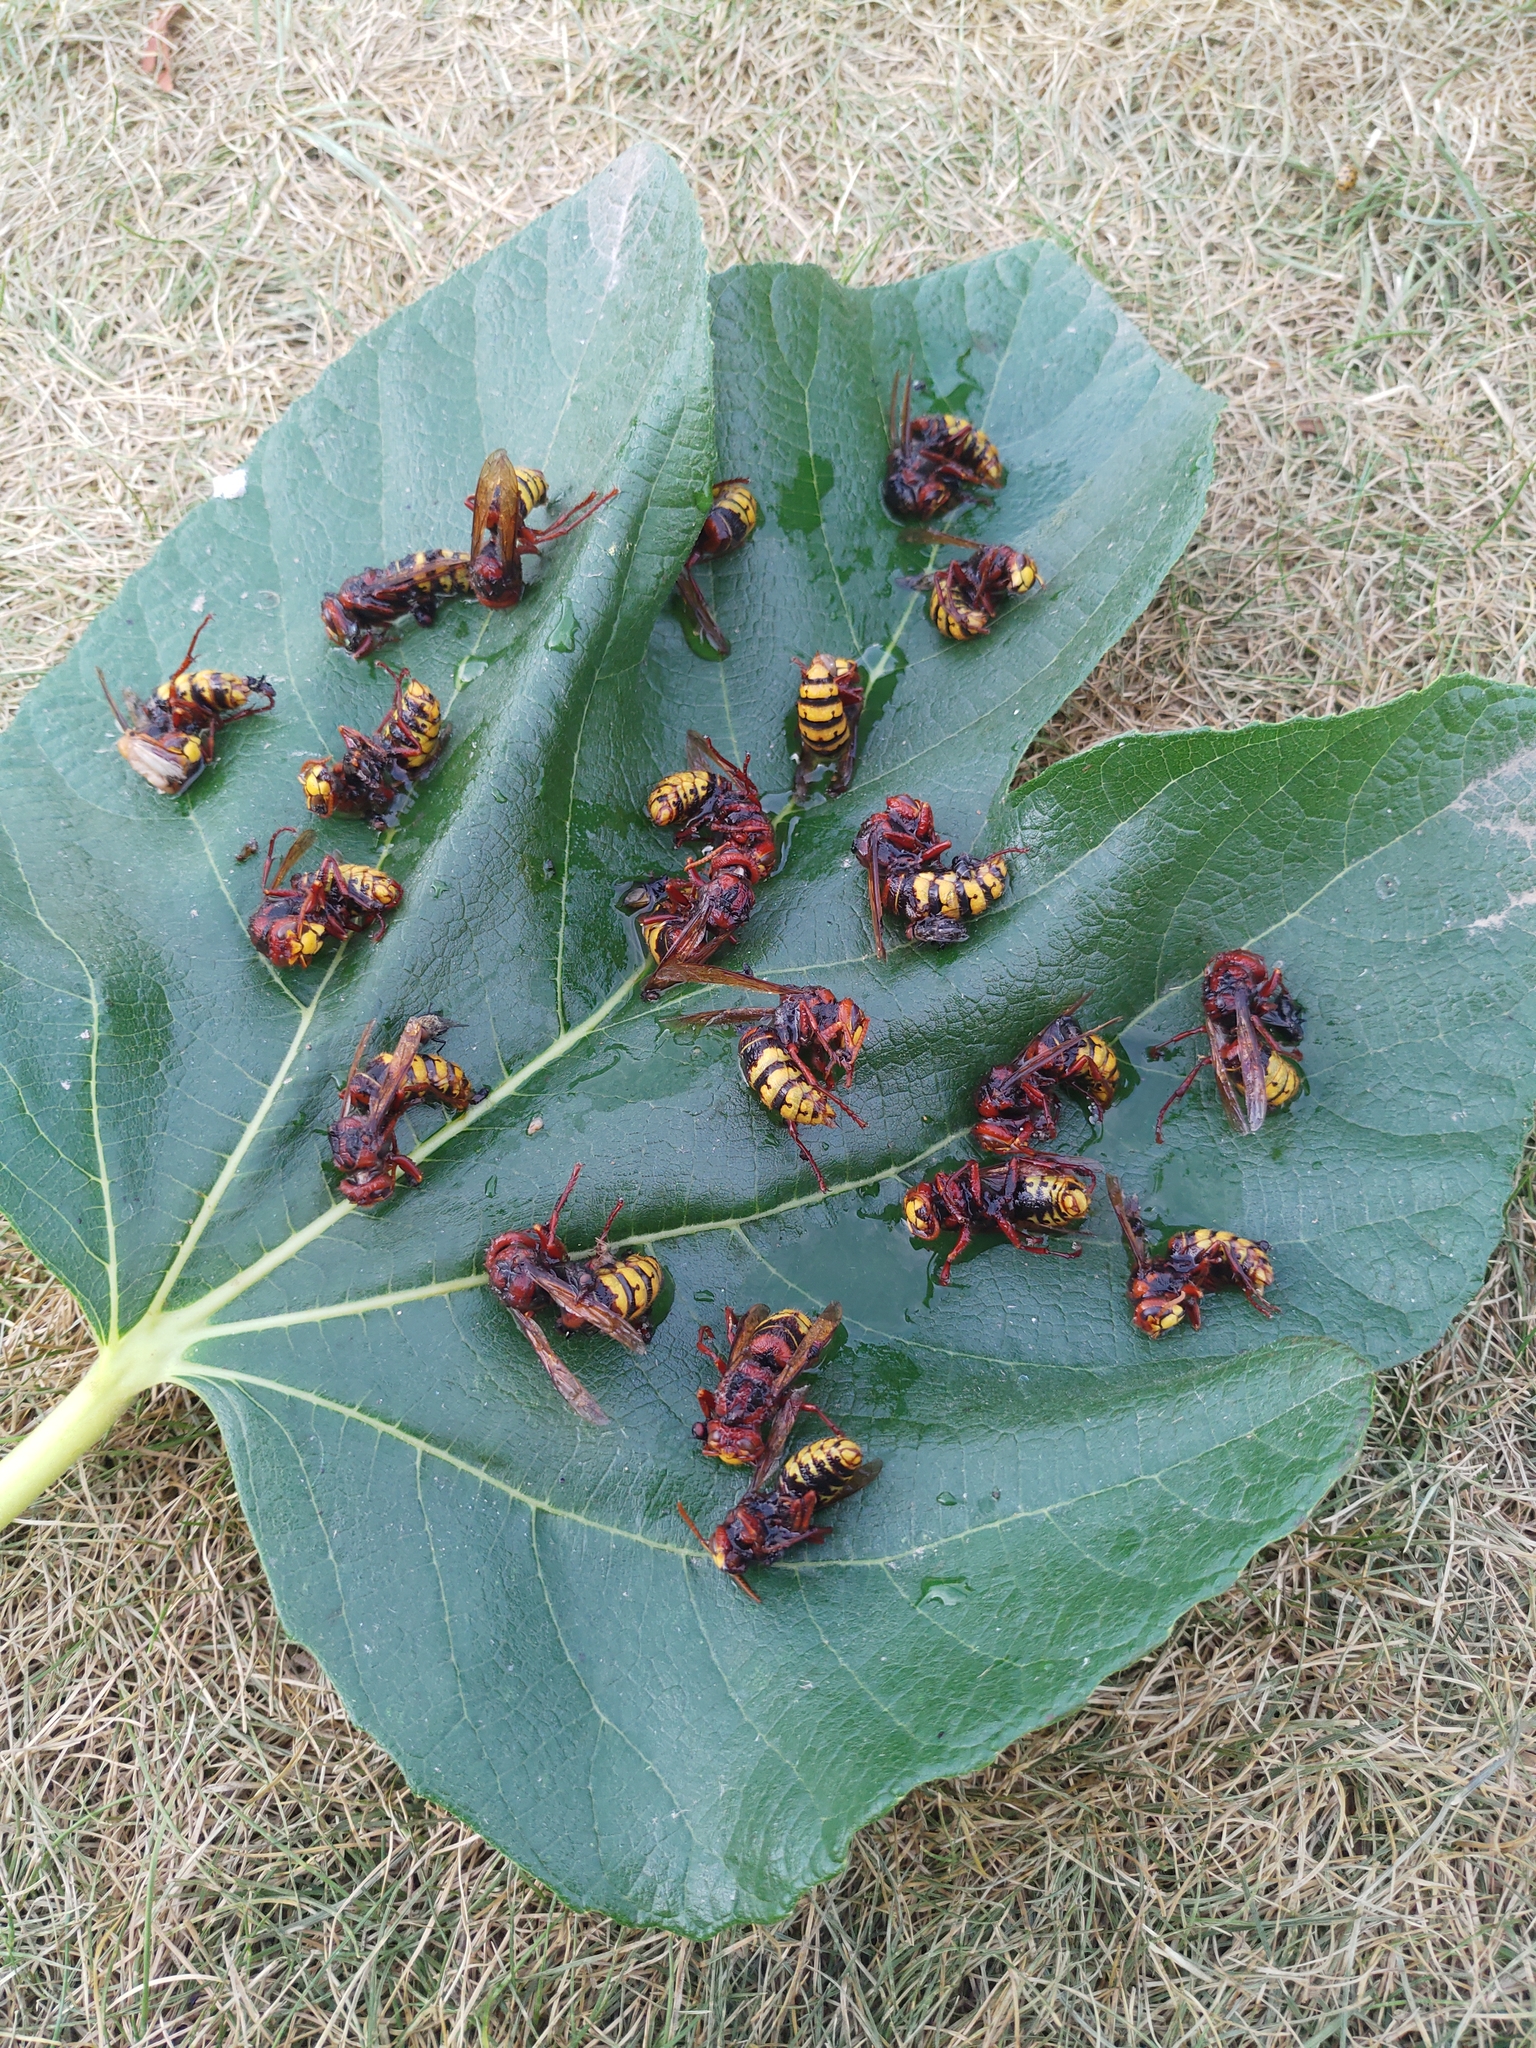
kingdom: Animalia
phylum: Arthropoda
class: Insecta
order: Hymenoptera
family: Vespidae
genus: Vespa
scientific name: Vespa crabro
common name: Hornet
